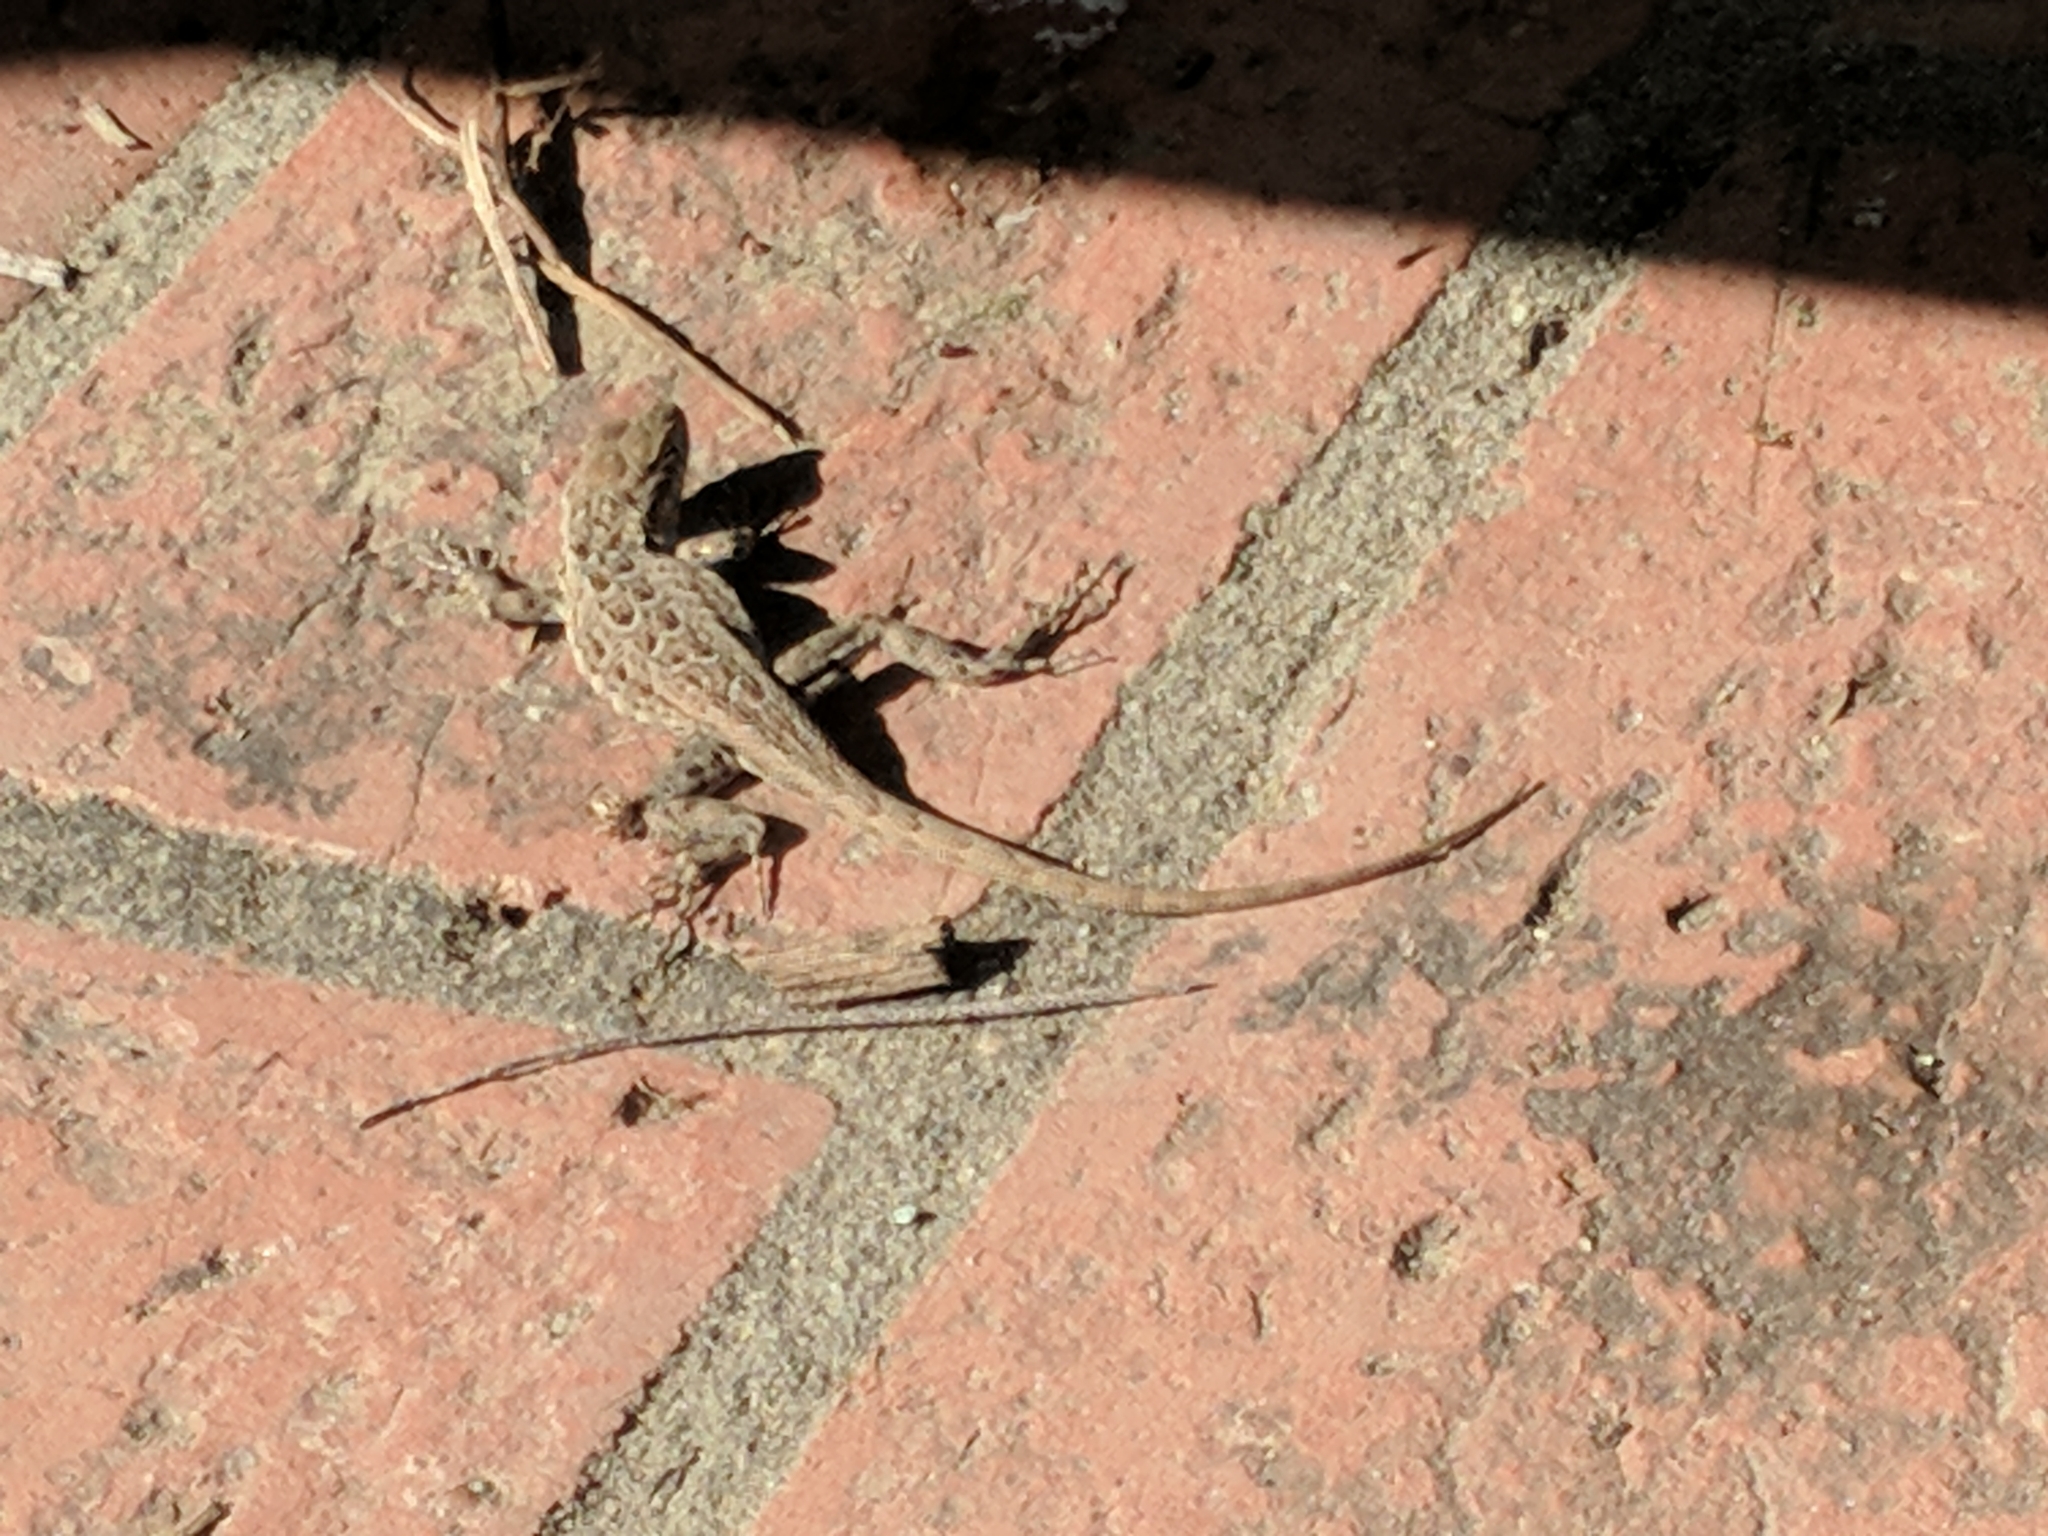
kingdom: Animalia
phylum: Chordata
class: Squamata
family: Phrynosomatidae
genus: Uta
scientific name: Uta stansburiana
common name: Side-blotched lizard
